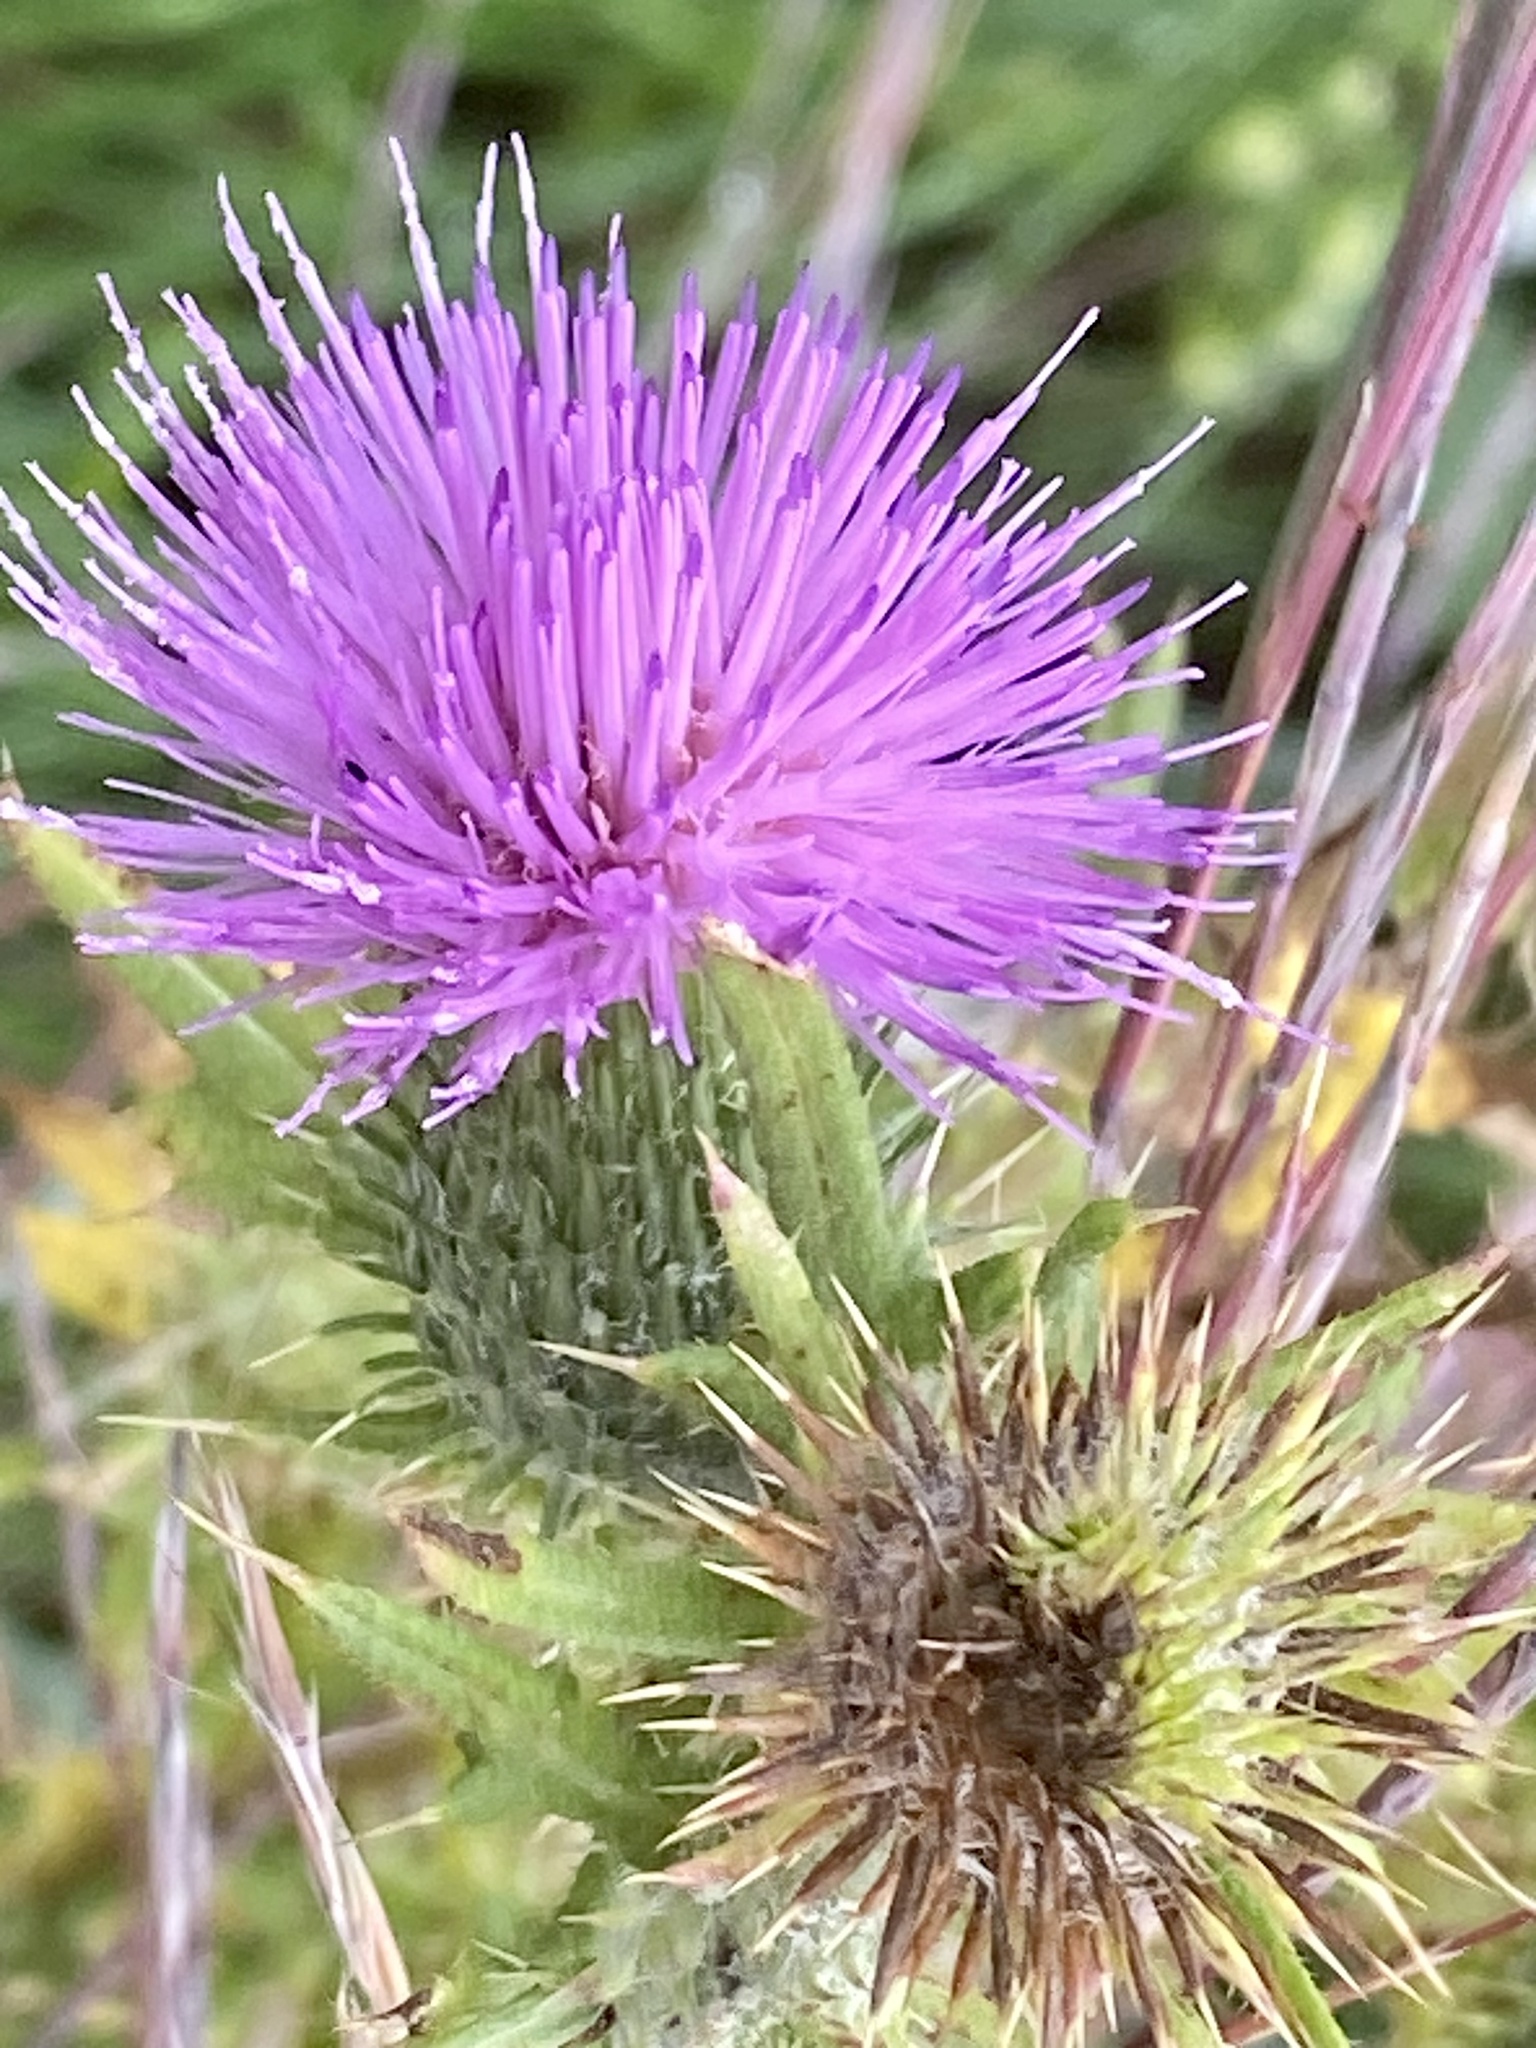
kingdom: Plantae
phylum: Tracheophyta
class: Magnoliopsida
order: Asterales
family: Asteraceae
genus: Cirsium
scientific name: Cirsium vulgare
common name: Bull thistle
